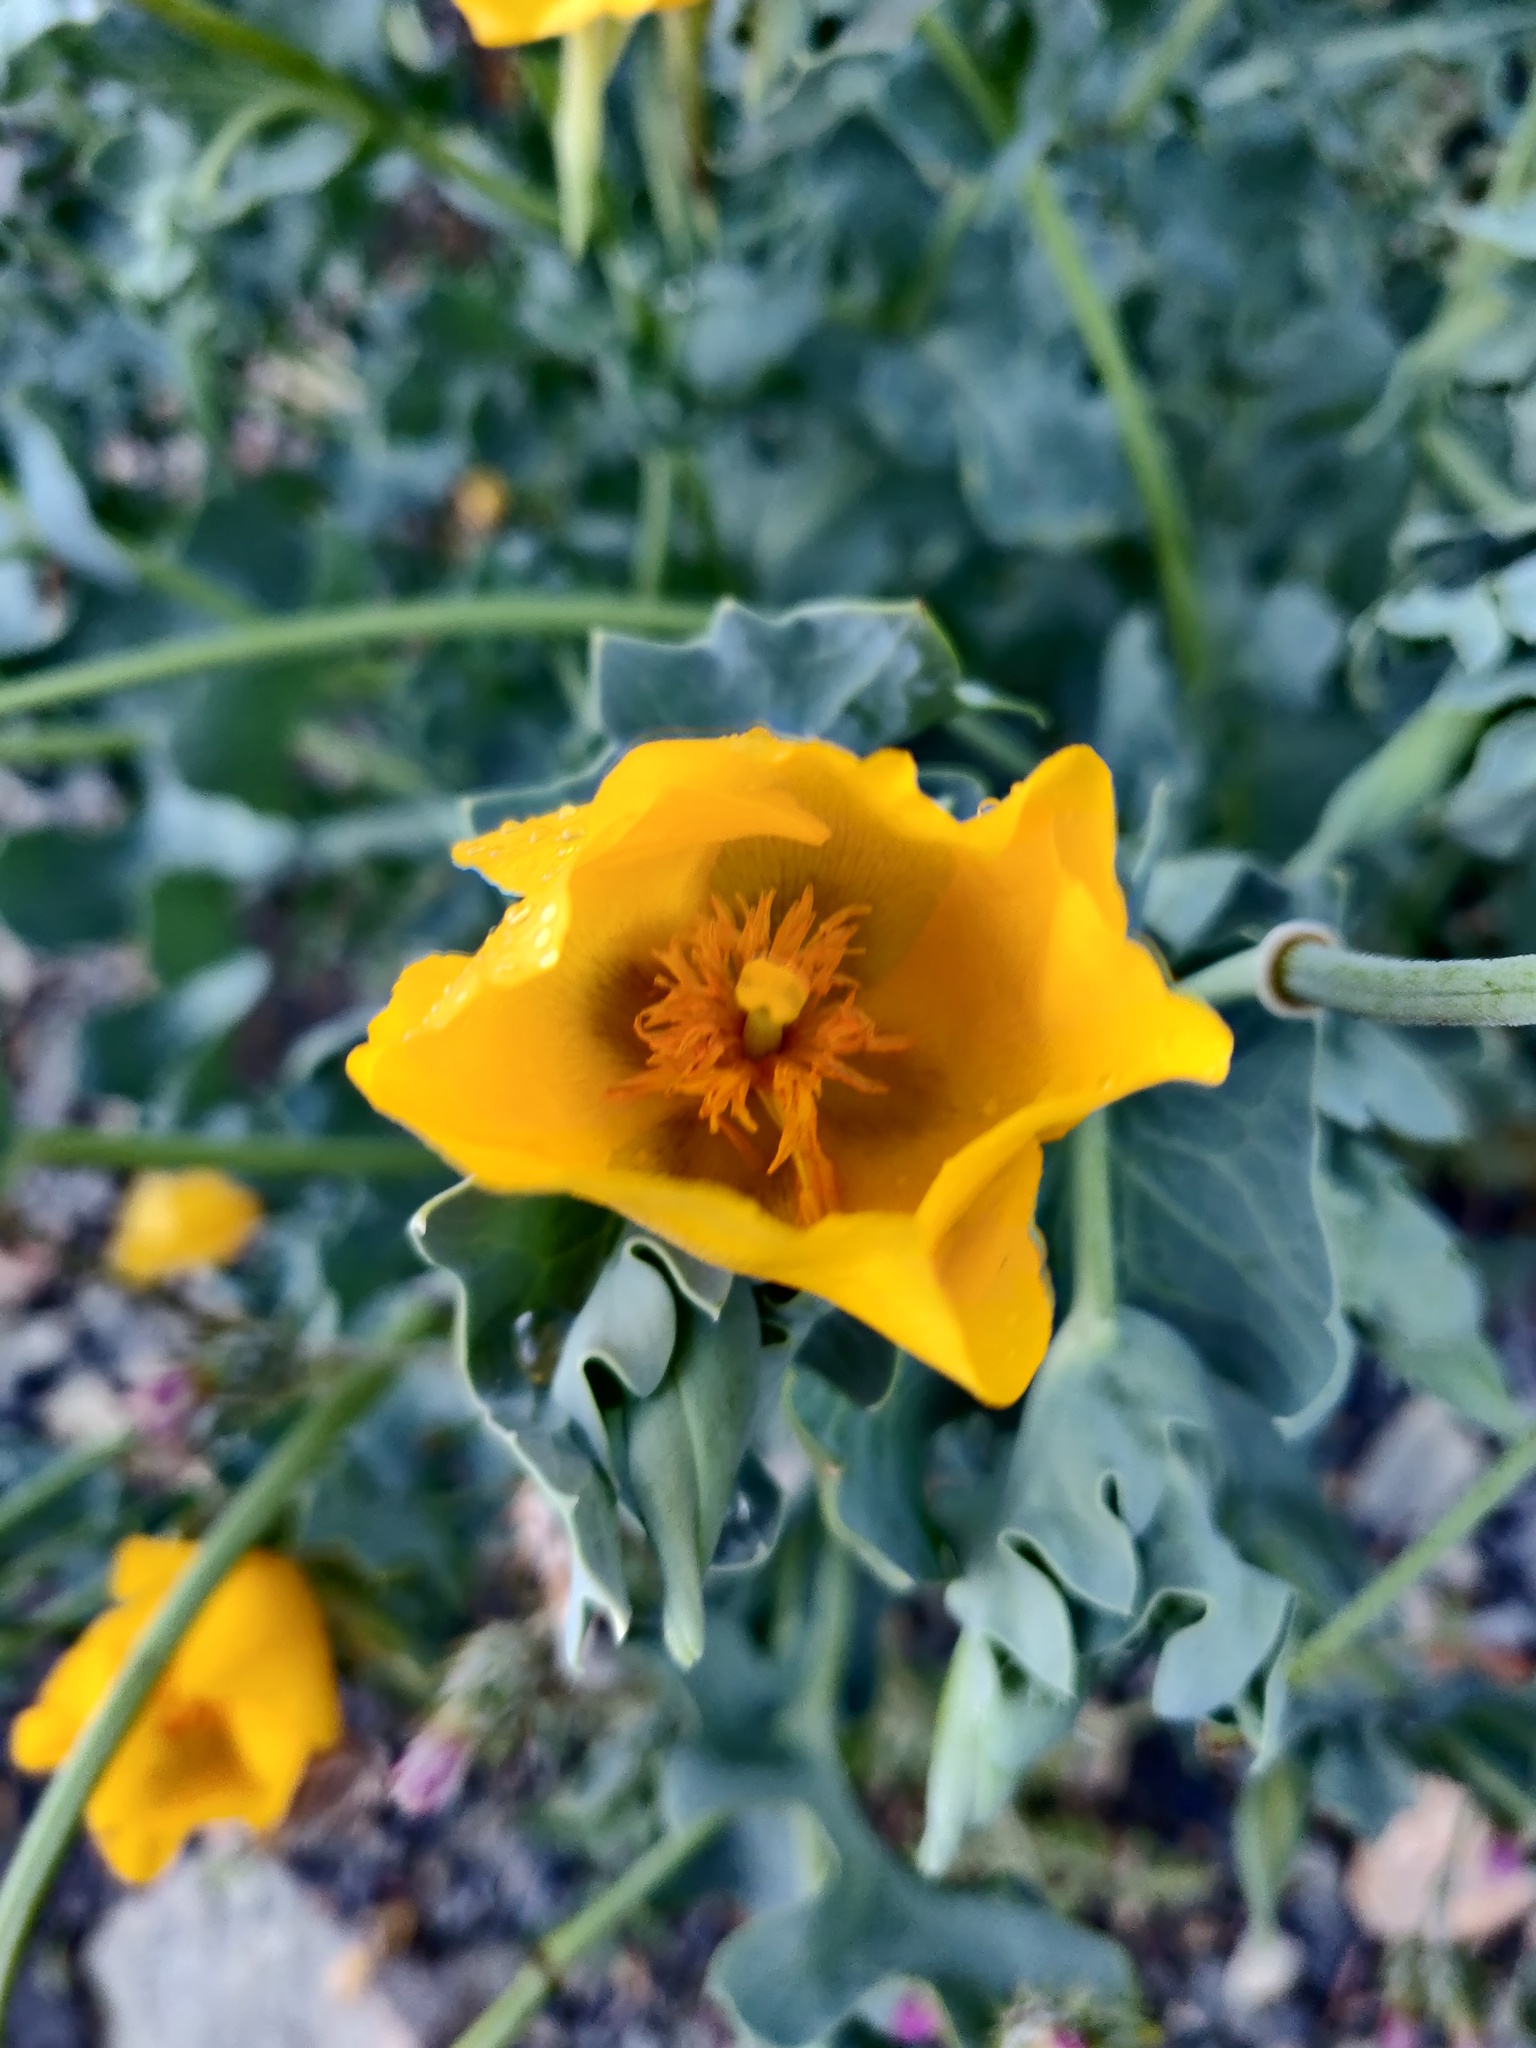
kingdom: Plantae
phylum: Tracheophyta
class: Magnoliopsida
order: Ranunculales
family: Papaveraceae
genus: Glaucium
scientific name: Glaucium flavum
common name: Yellow horned-poppy
